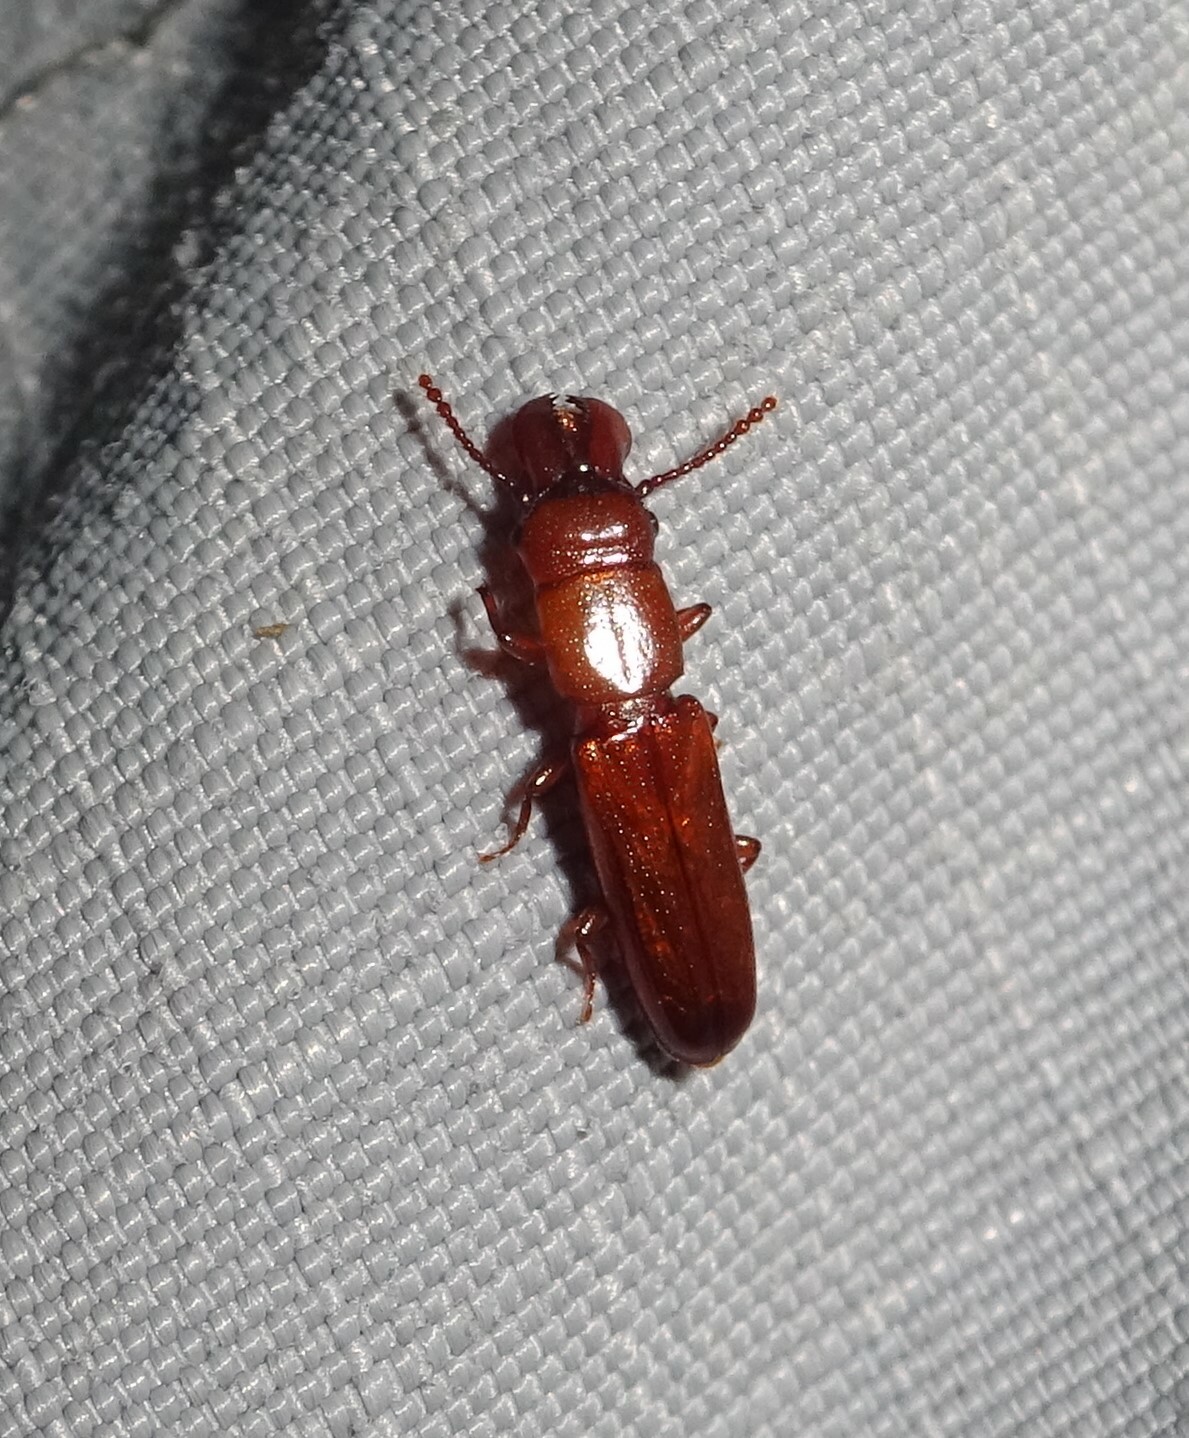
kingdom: Animalia
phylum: Arthropoda
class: Insecta
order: Coleoptera
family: Prostomidae
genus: Prostomis
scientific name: Prostomis mandibularis
